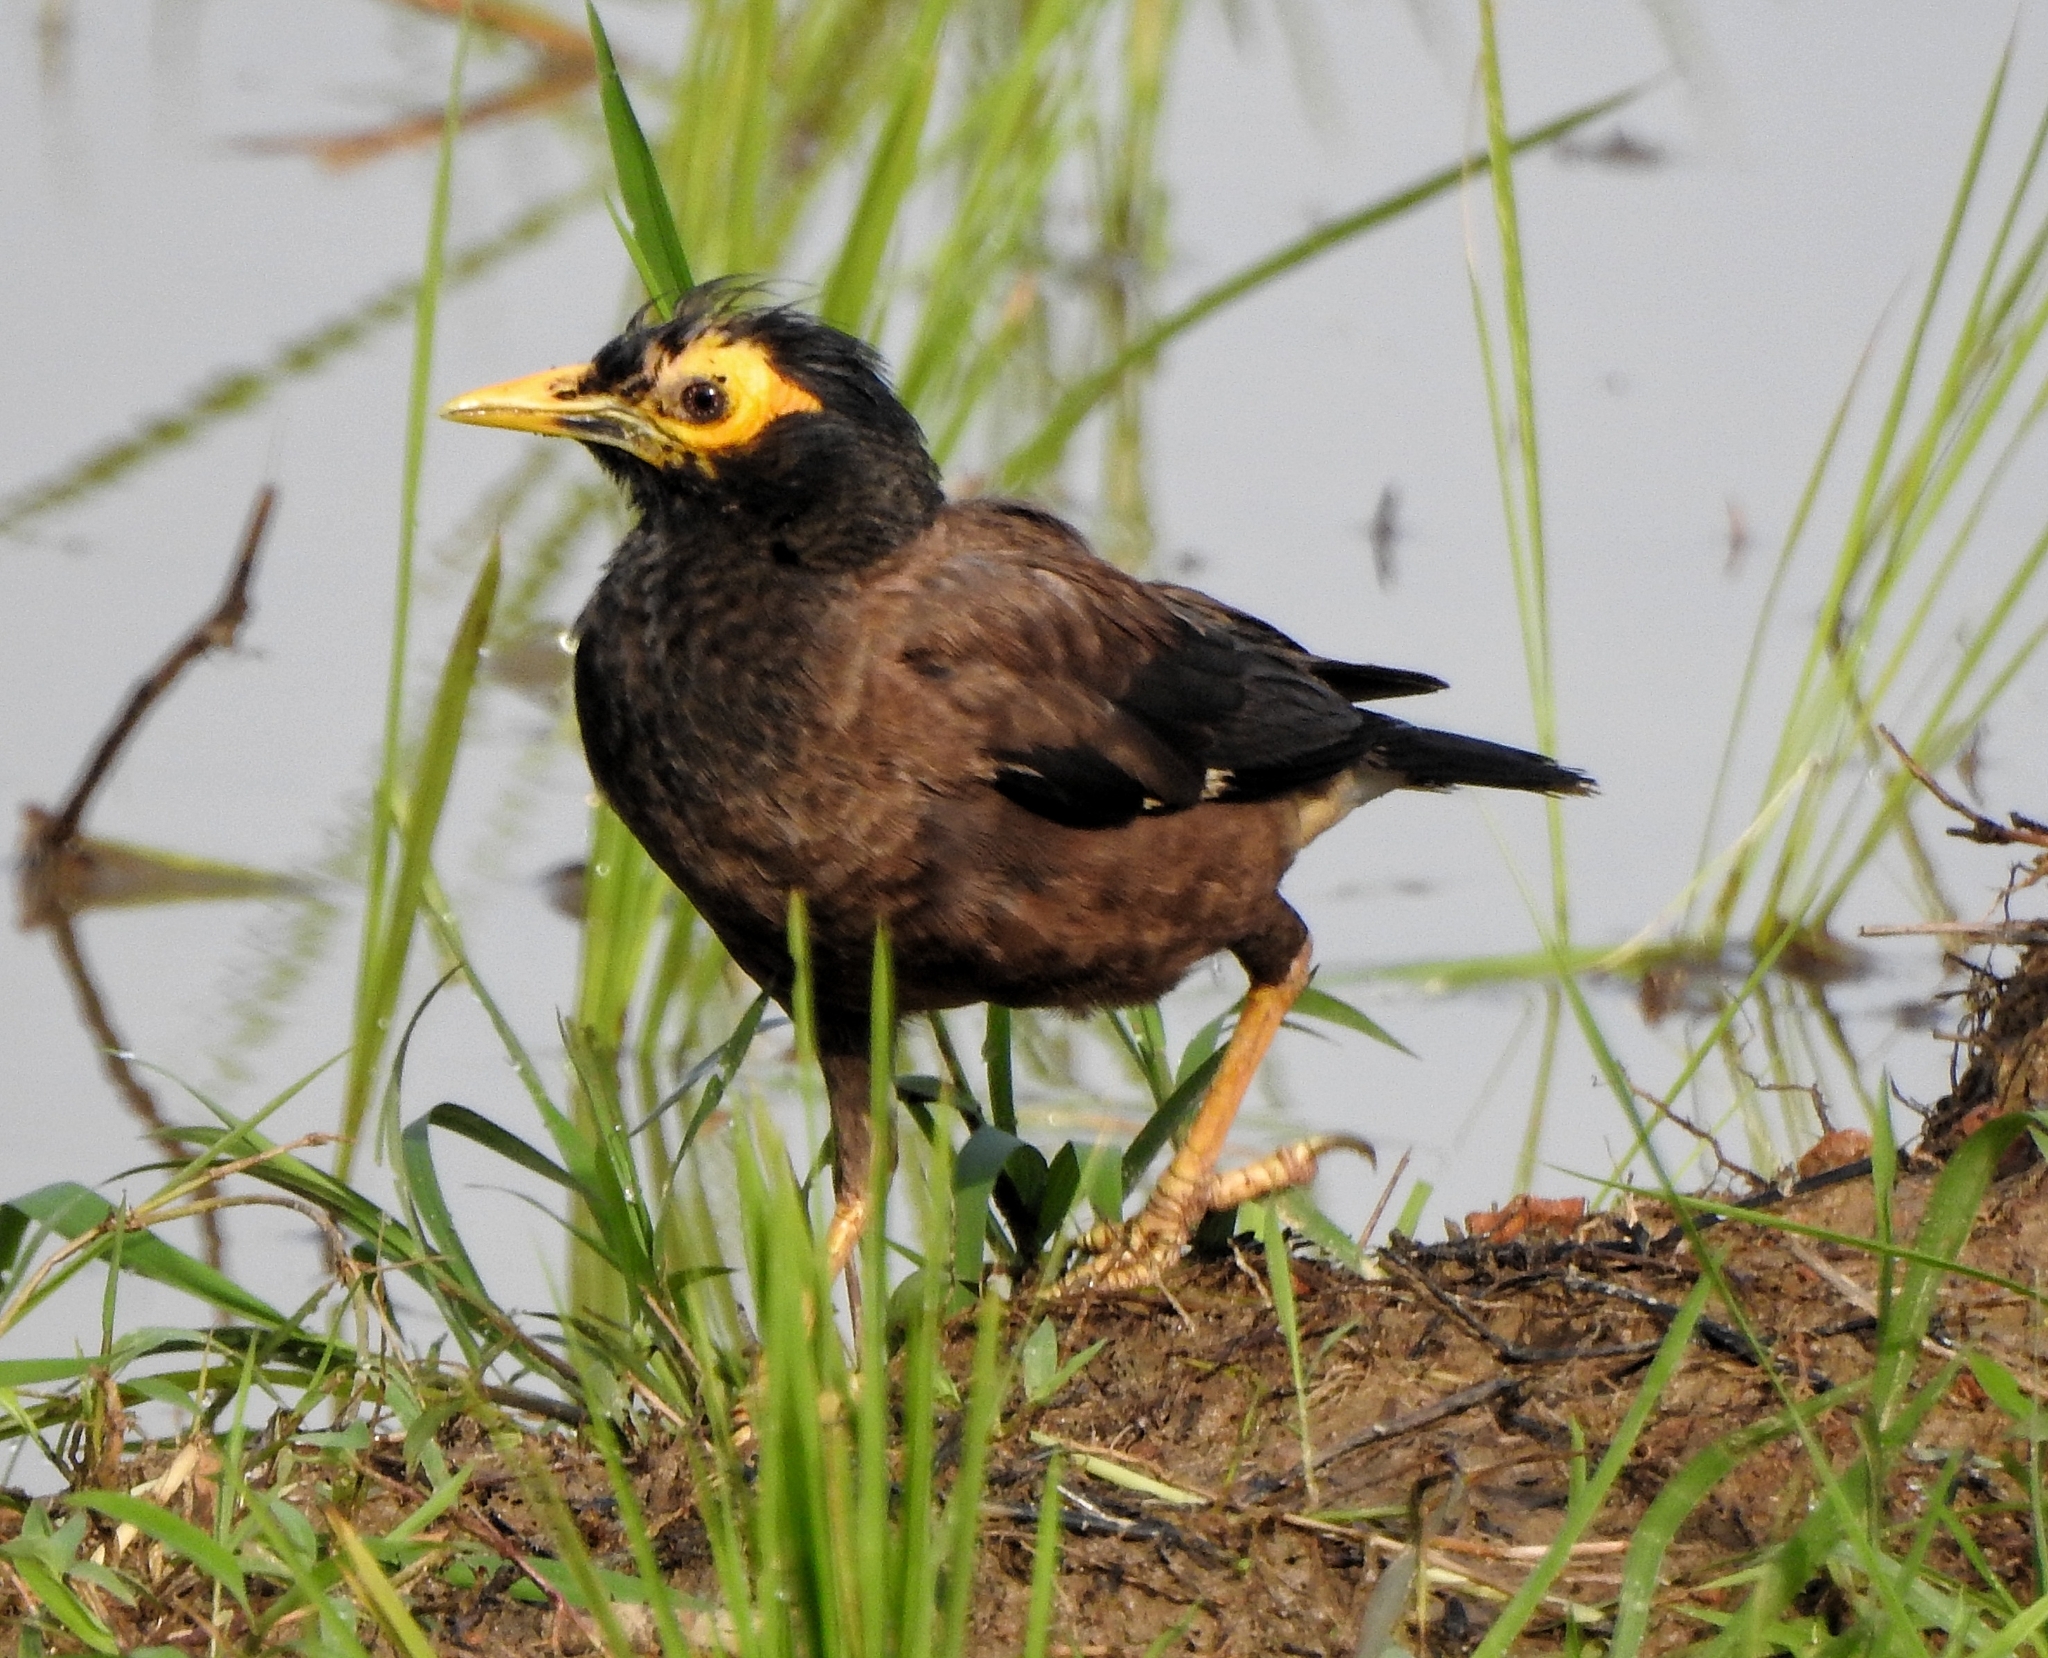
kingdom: Animalia
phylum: Chordata
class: Aves
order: Passeriformes
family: Sturnidae
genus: Acridotheres
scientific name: Acridotheres tristis
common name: Common myna
